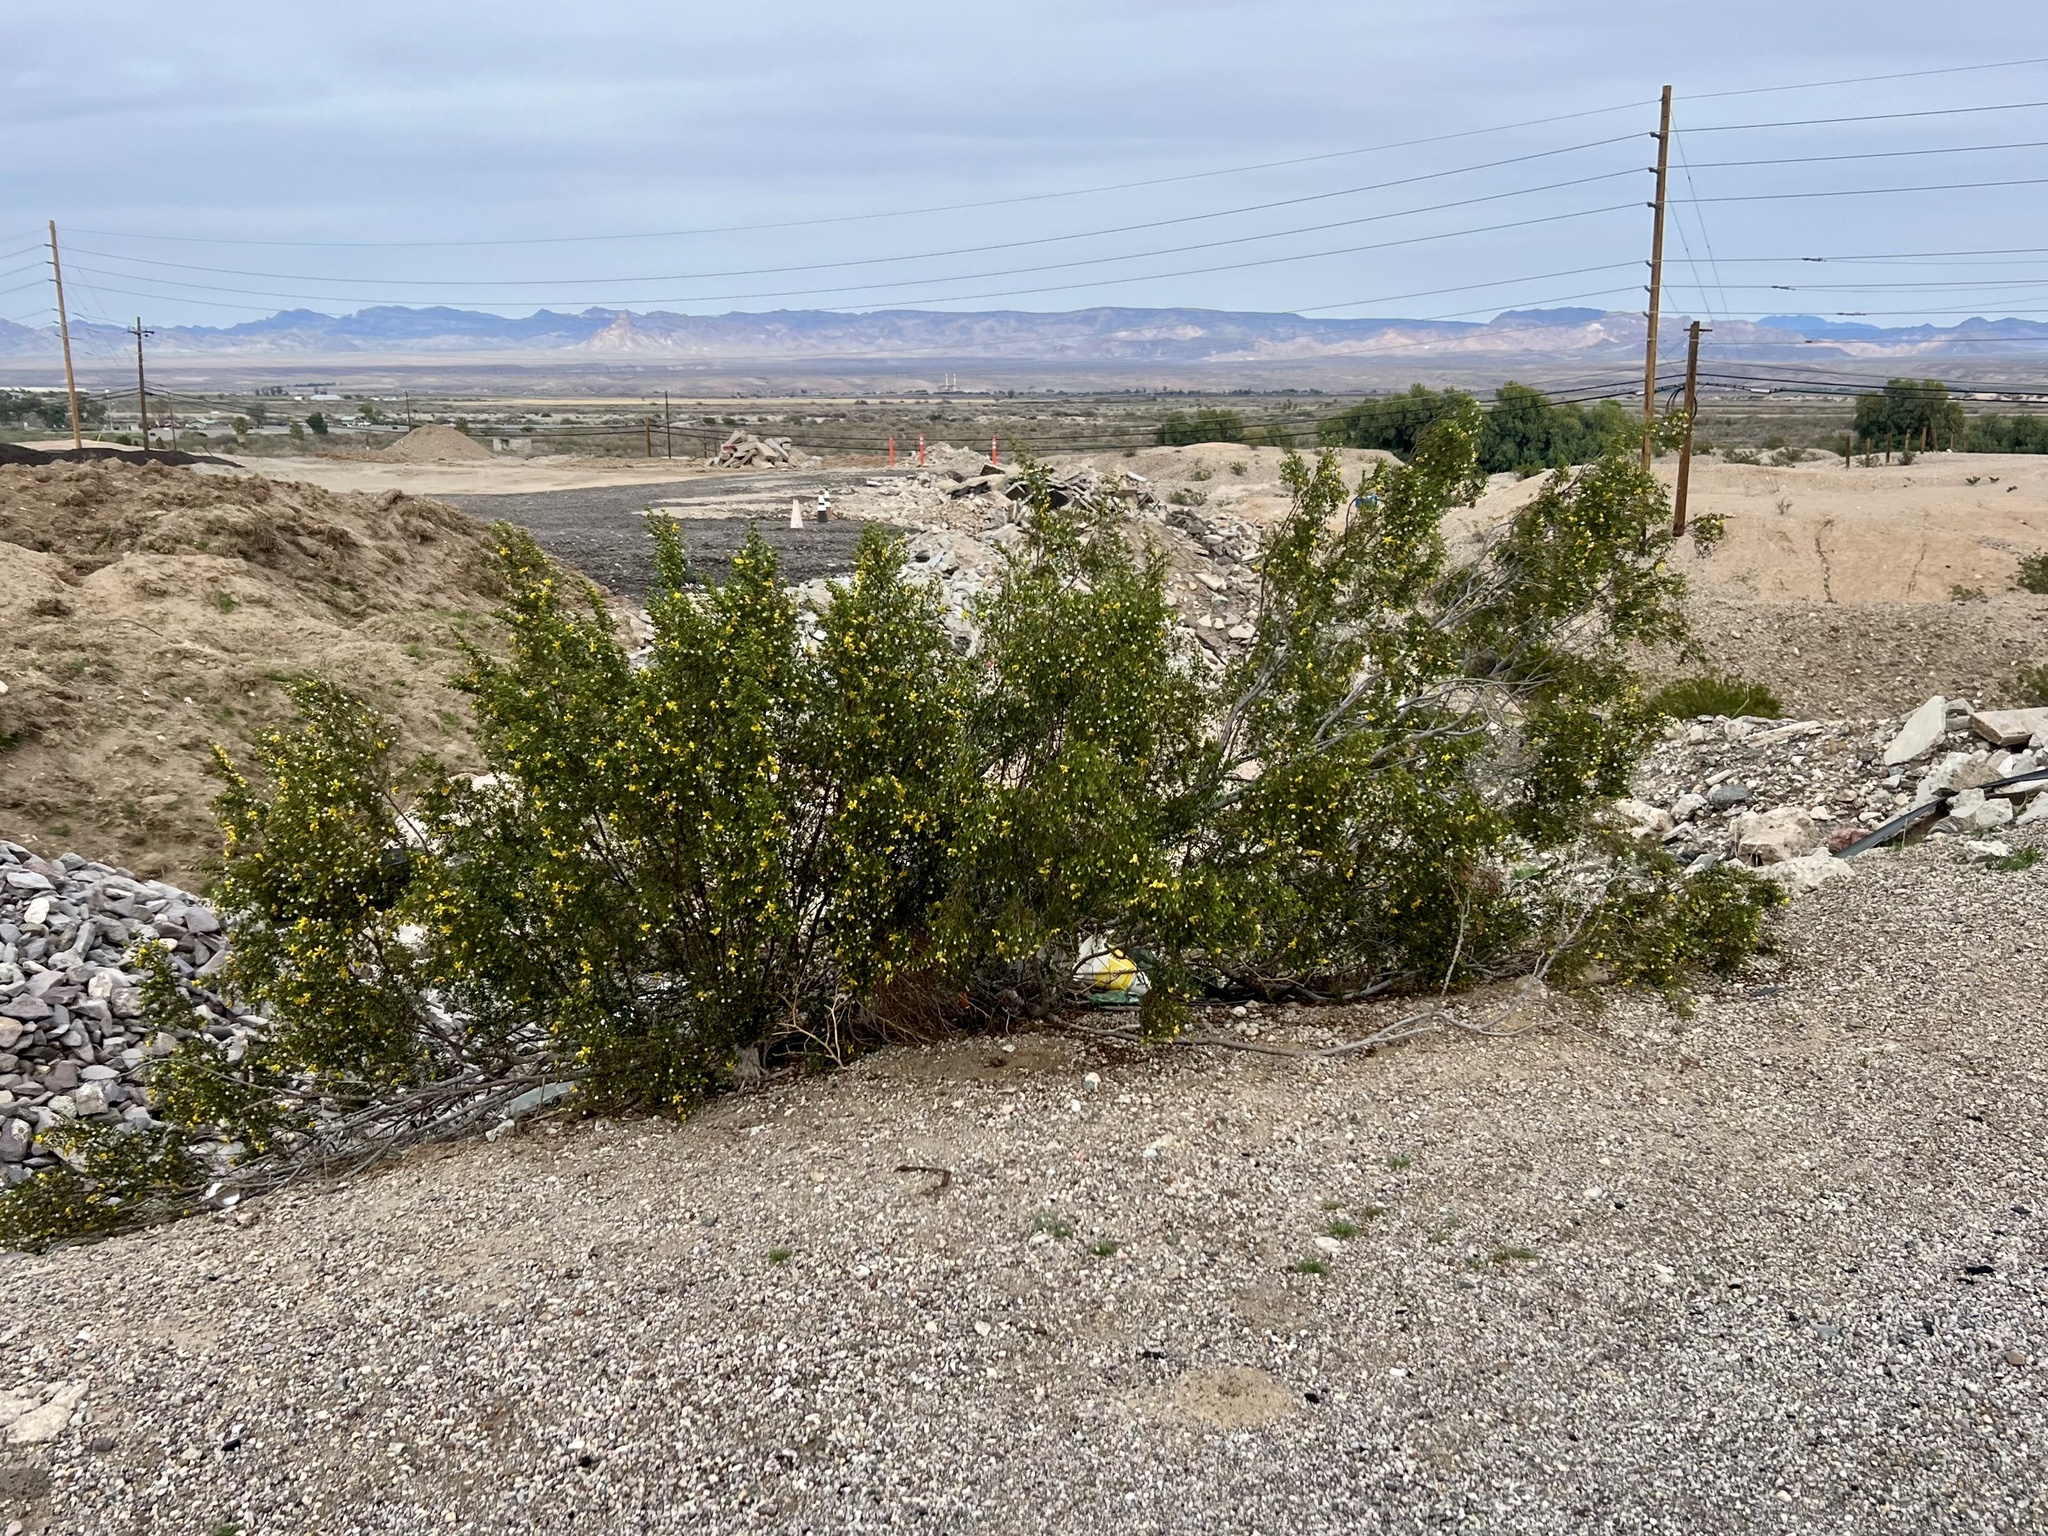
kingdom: Plantae
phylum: Tracheophyta
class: Magnoliopsida
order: Zygophyllales
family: Zygophyllaceae
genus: Larrea
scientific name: Larrea tridentata
